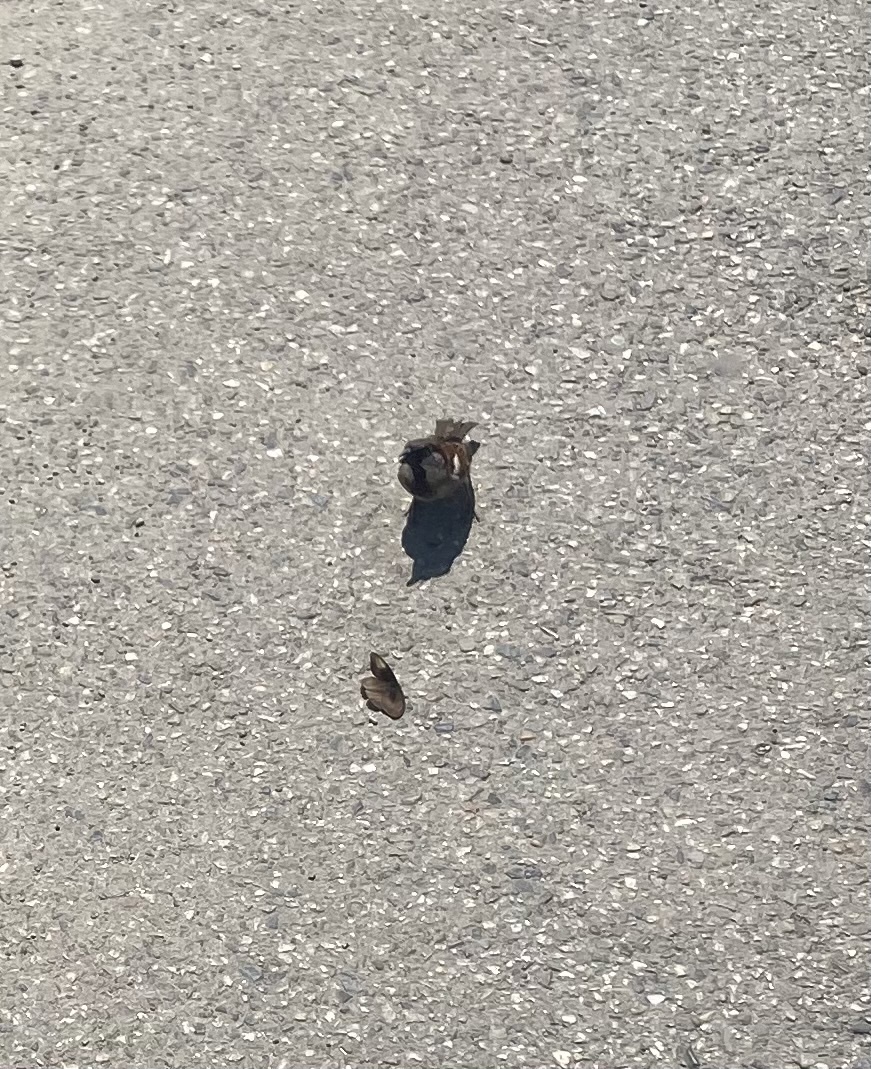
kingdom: Animalia
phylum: Chordata
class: Aves
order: Passeriformes
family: Passeridae
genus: Passer
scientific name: Passer domesticus
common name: House sparrow
